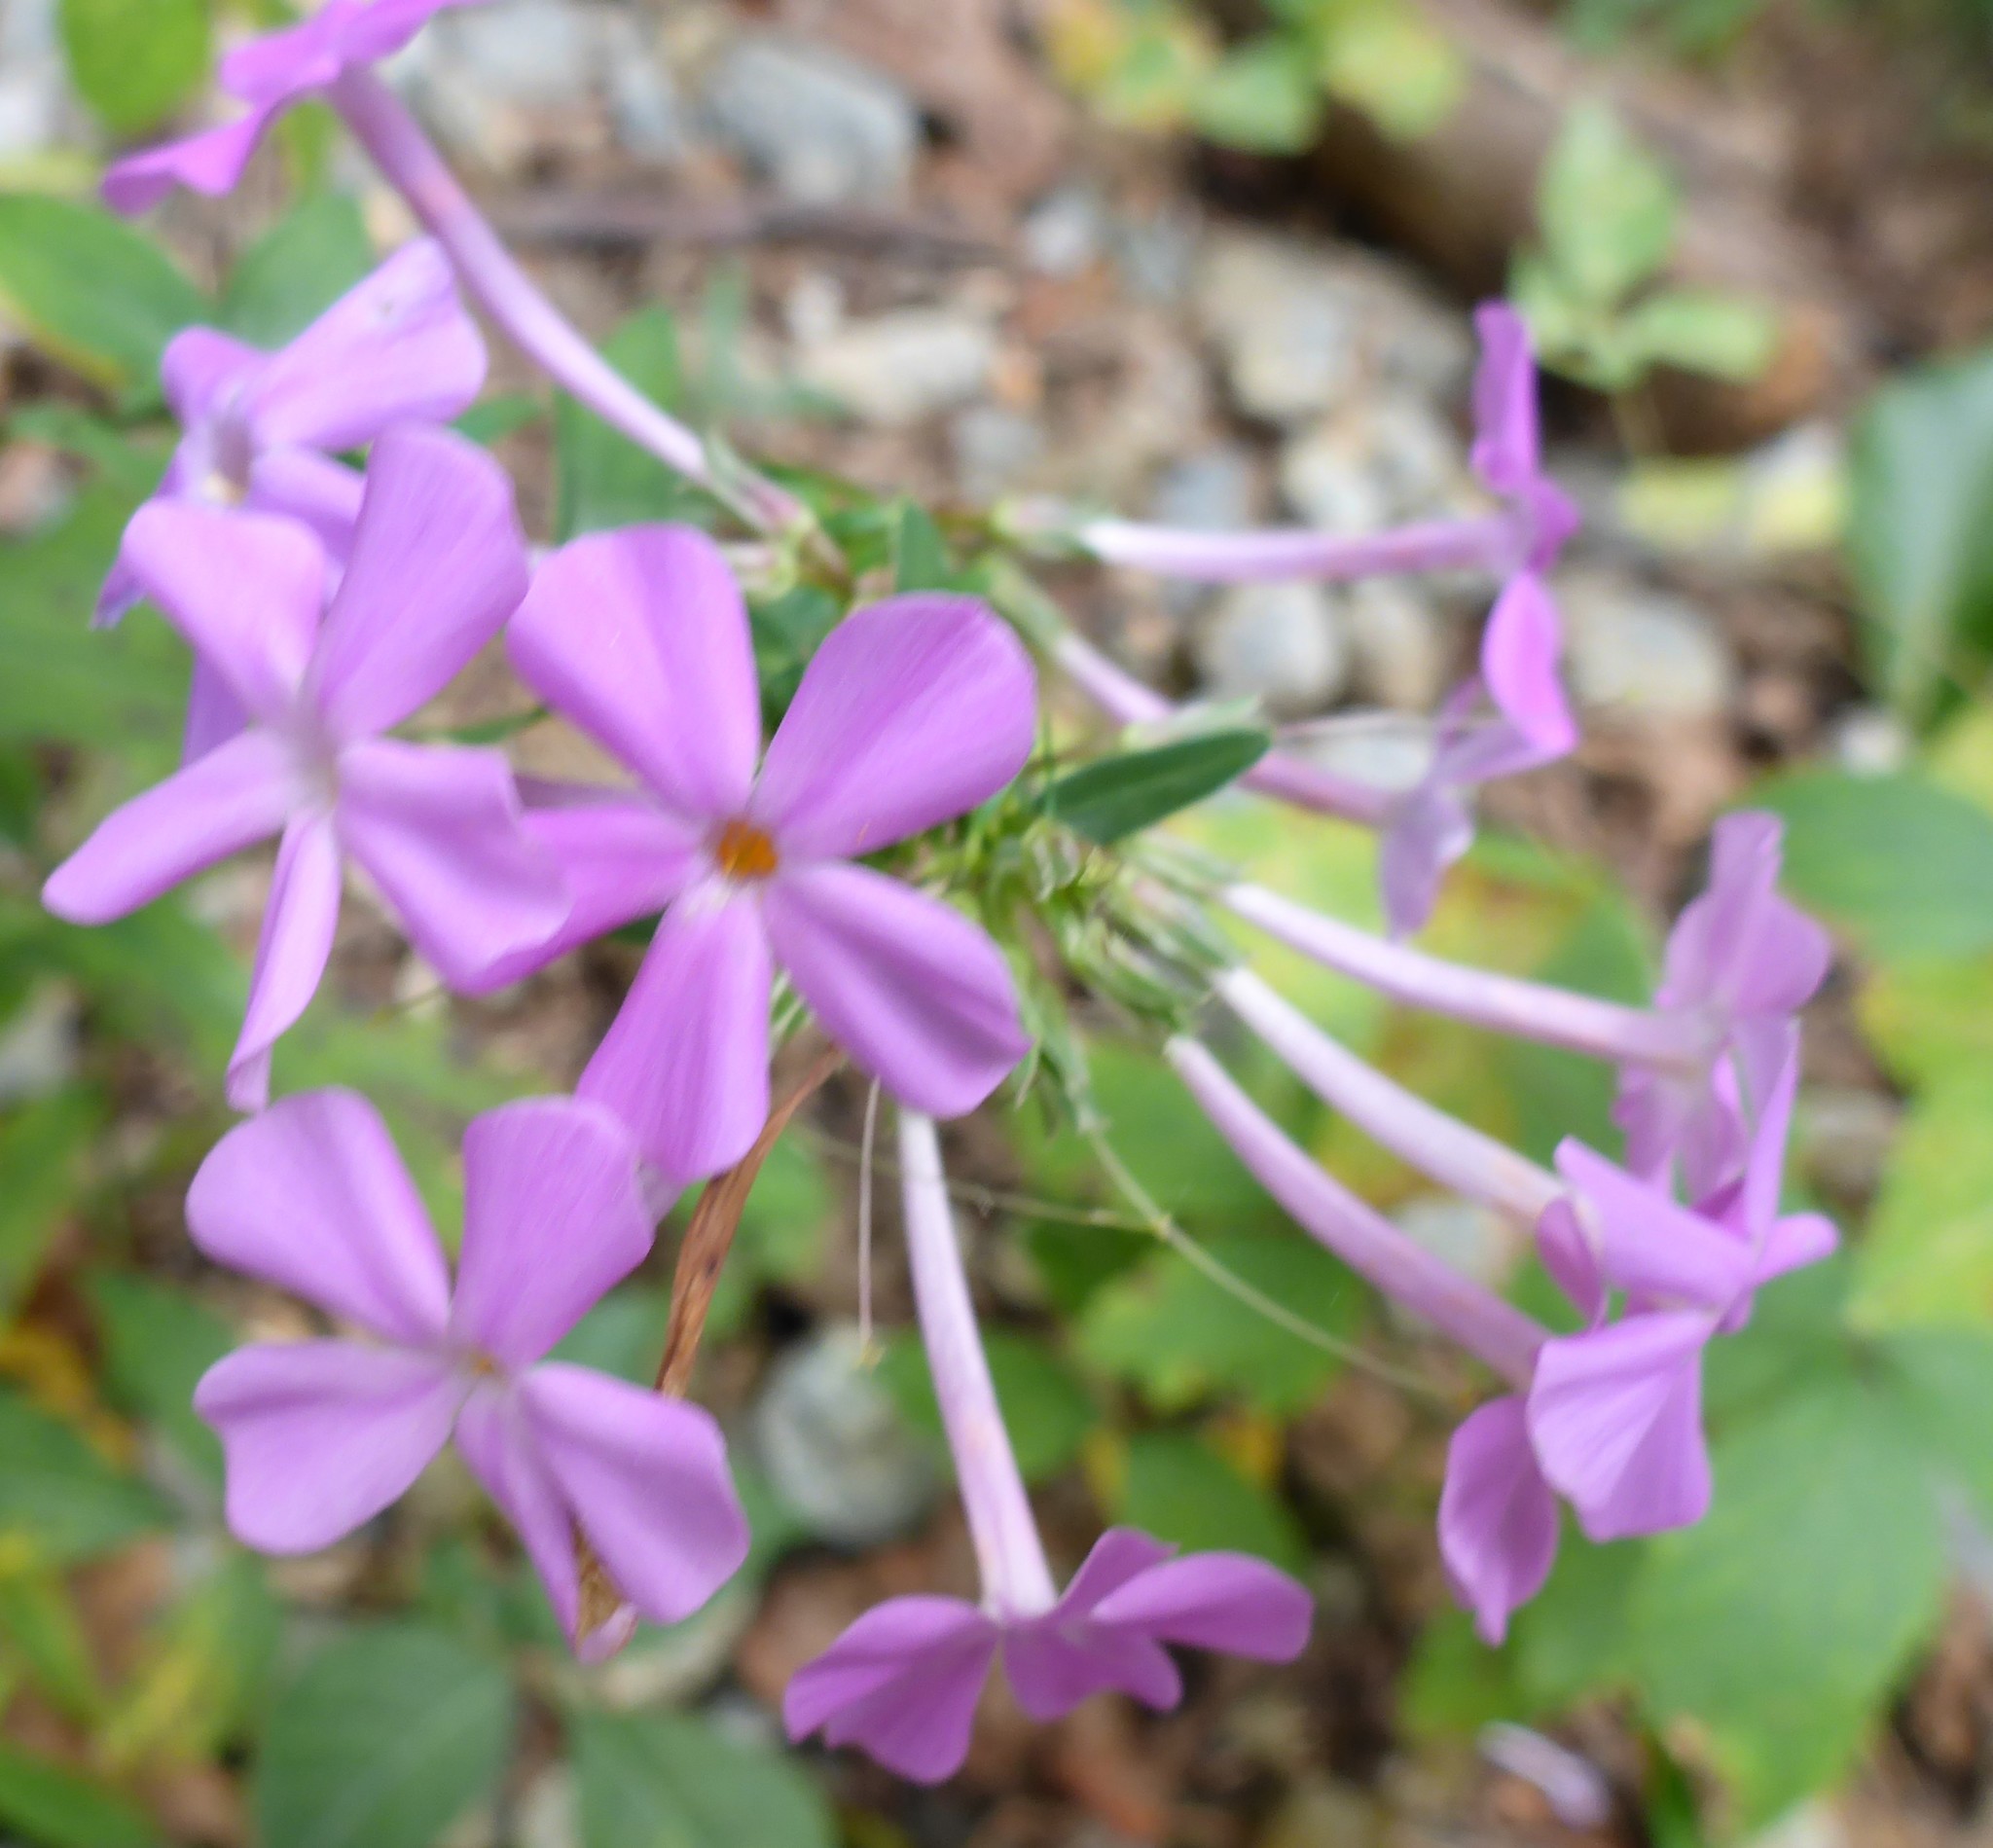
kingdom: Plantae
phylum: Tracheophyta
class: Magnoliopsida
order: Ericales
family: Polemoniaceae
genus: Phlox
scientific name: Phlox glaberrima
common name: Smooth phlox
